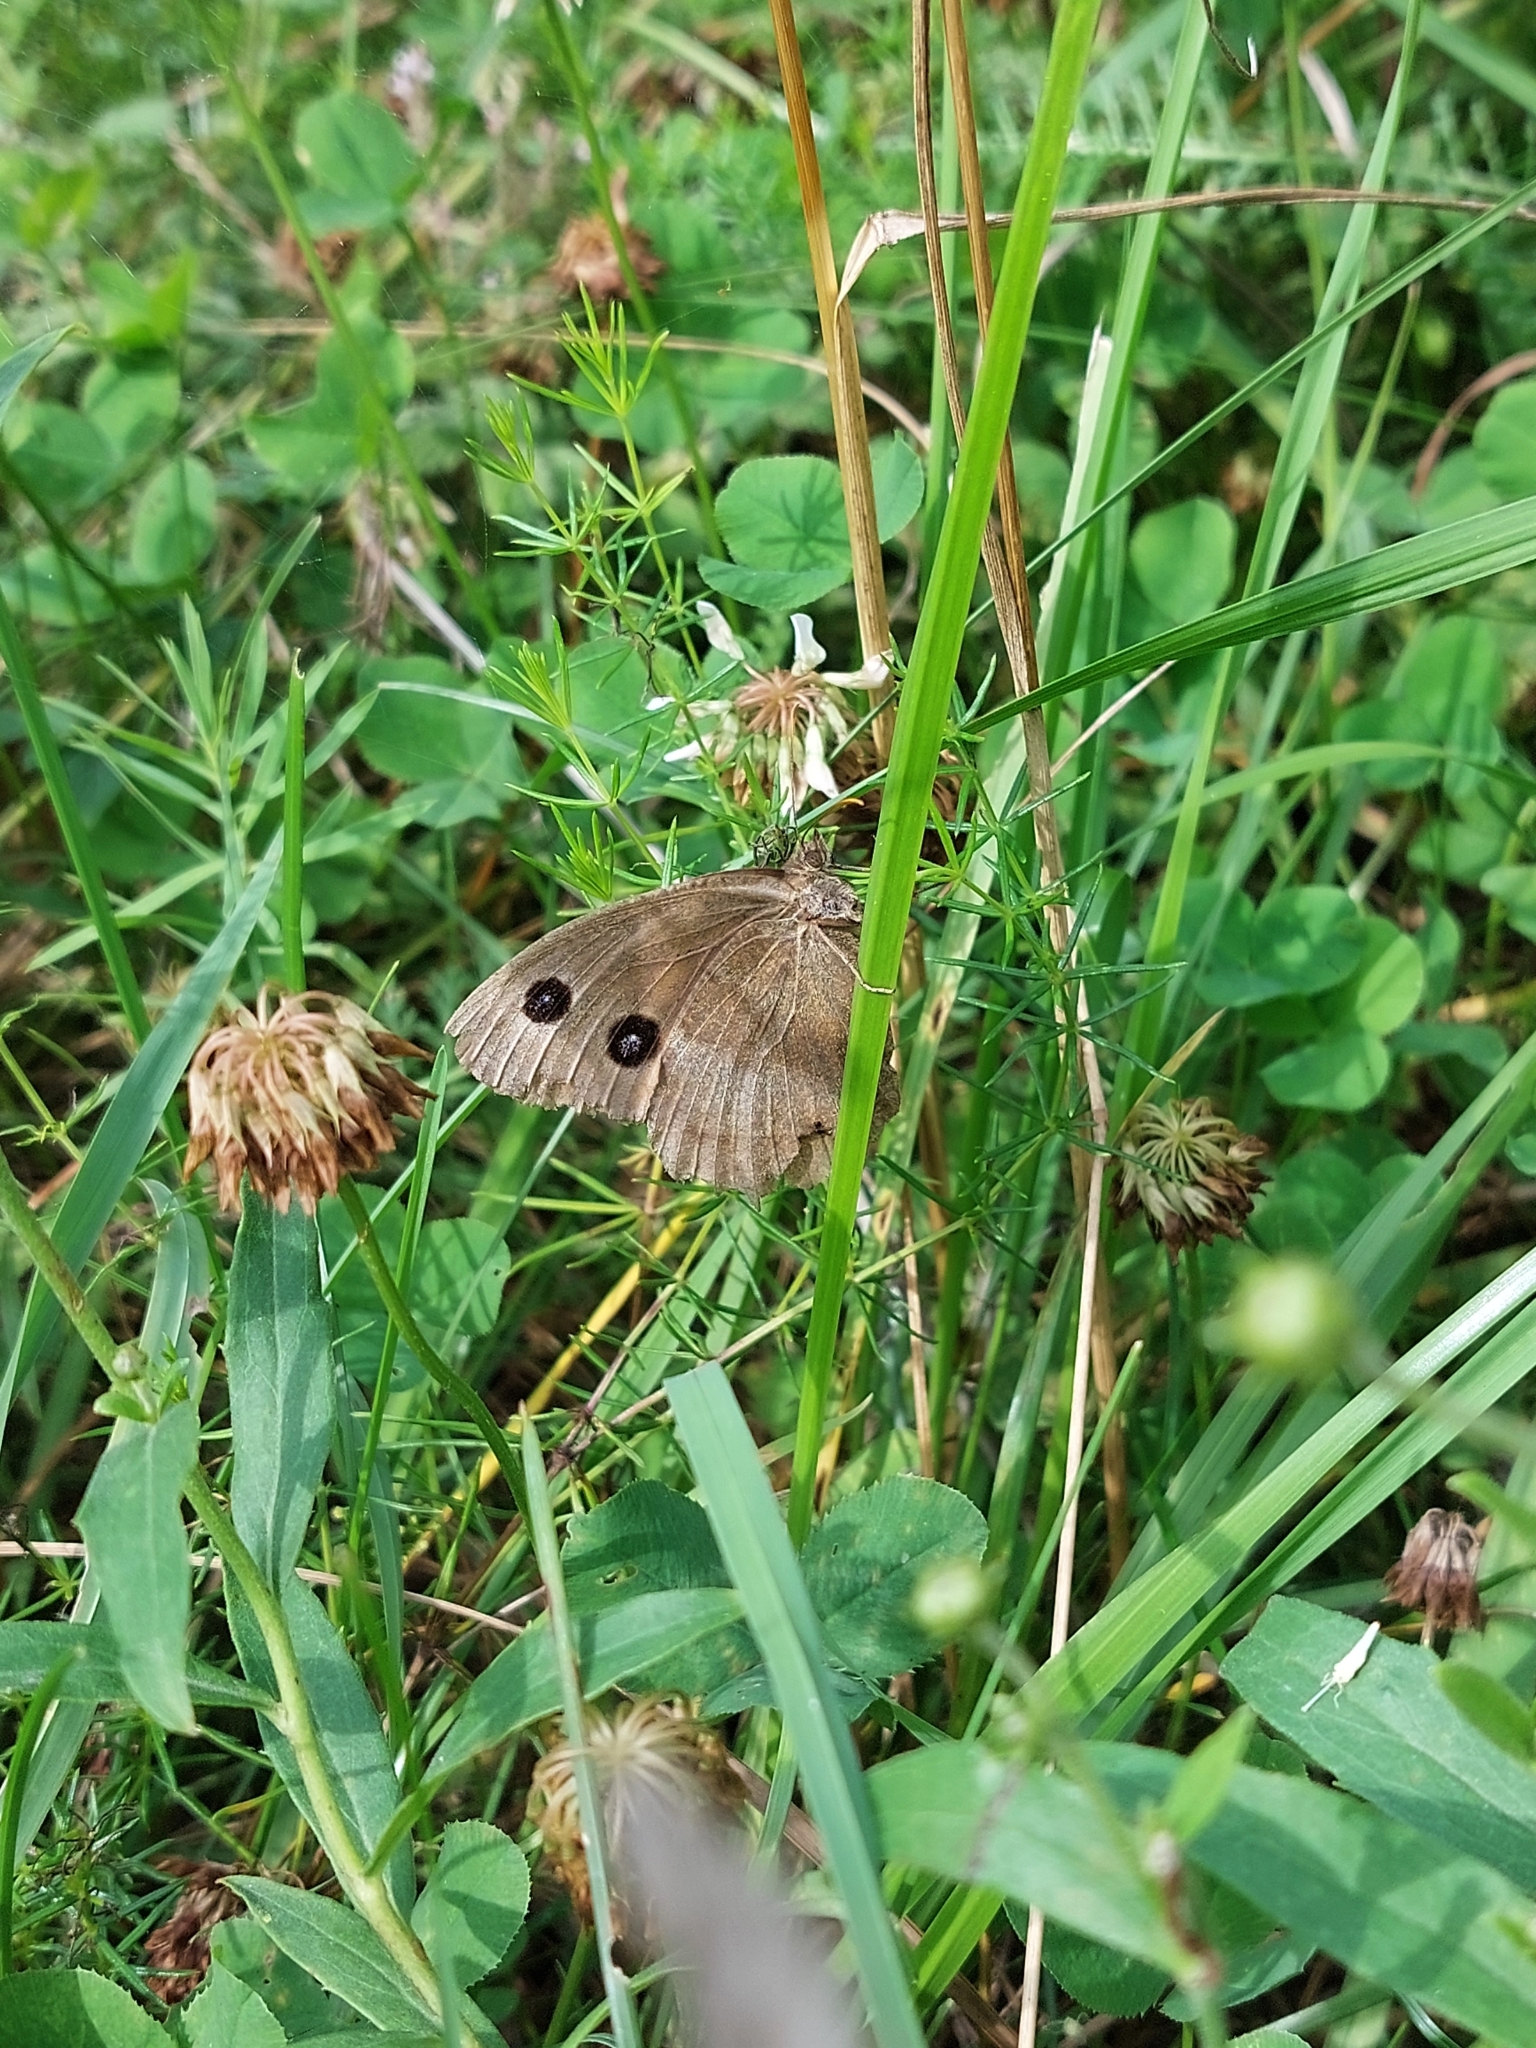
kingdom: Animalia
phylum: Arthropoda
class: Insecta
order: Lepidoptera
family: Nymphalidae
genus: Minois
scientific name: Minois dryas
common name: Dryad
